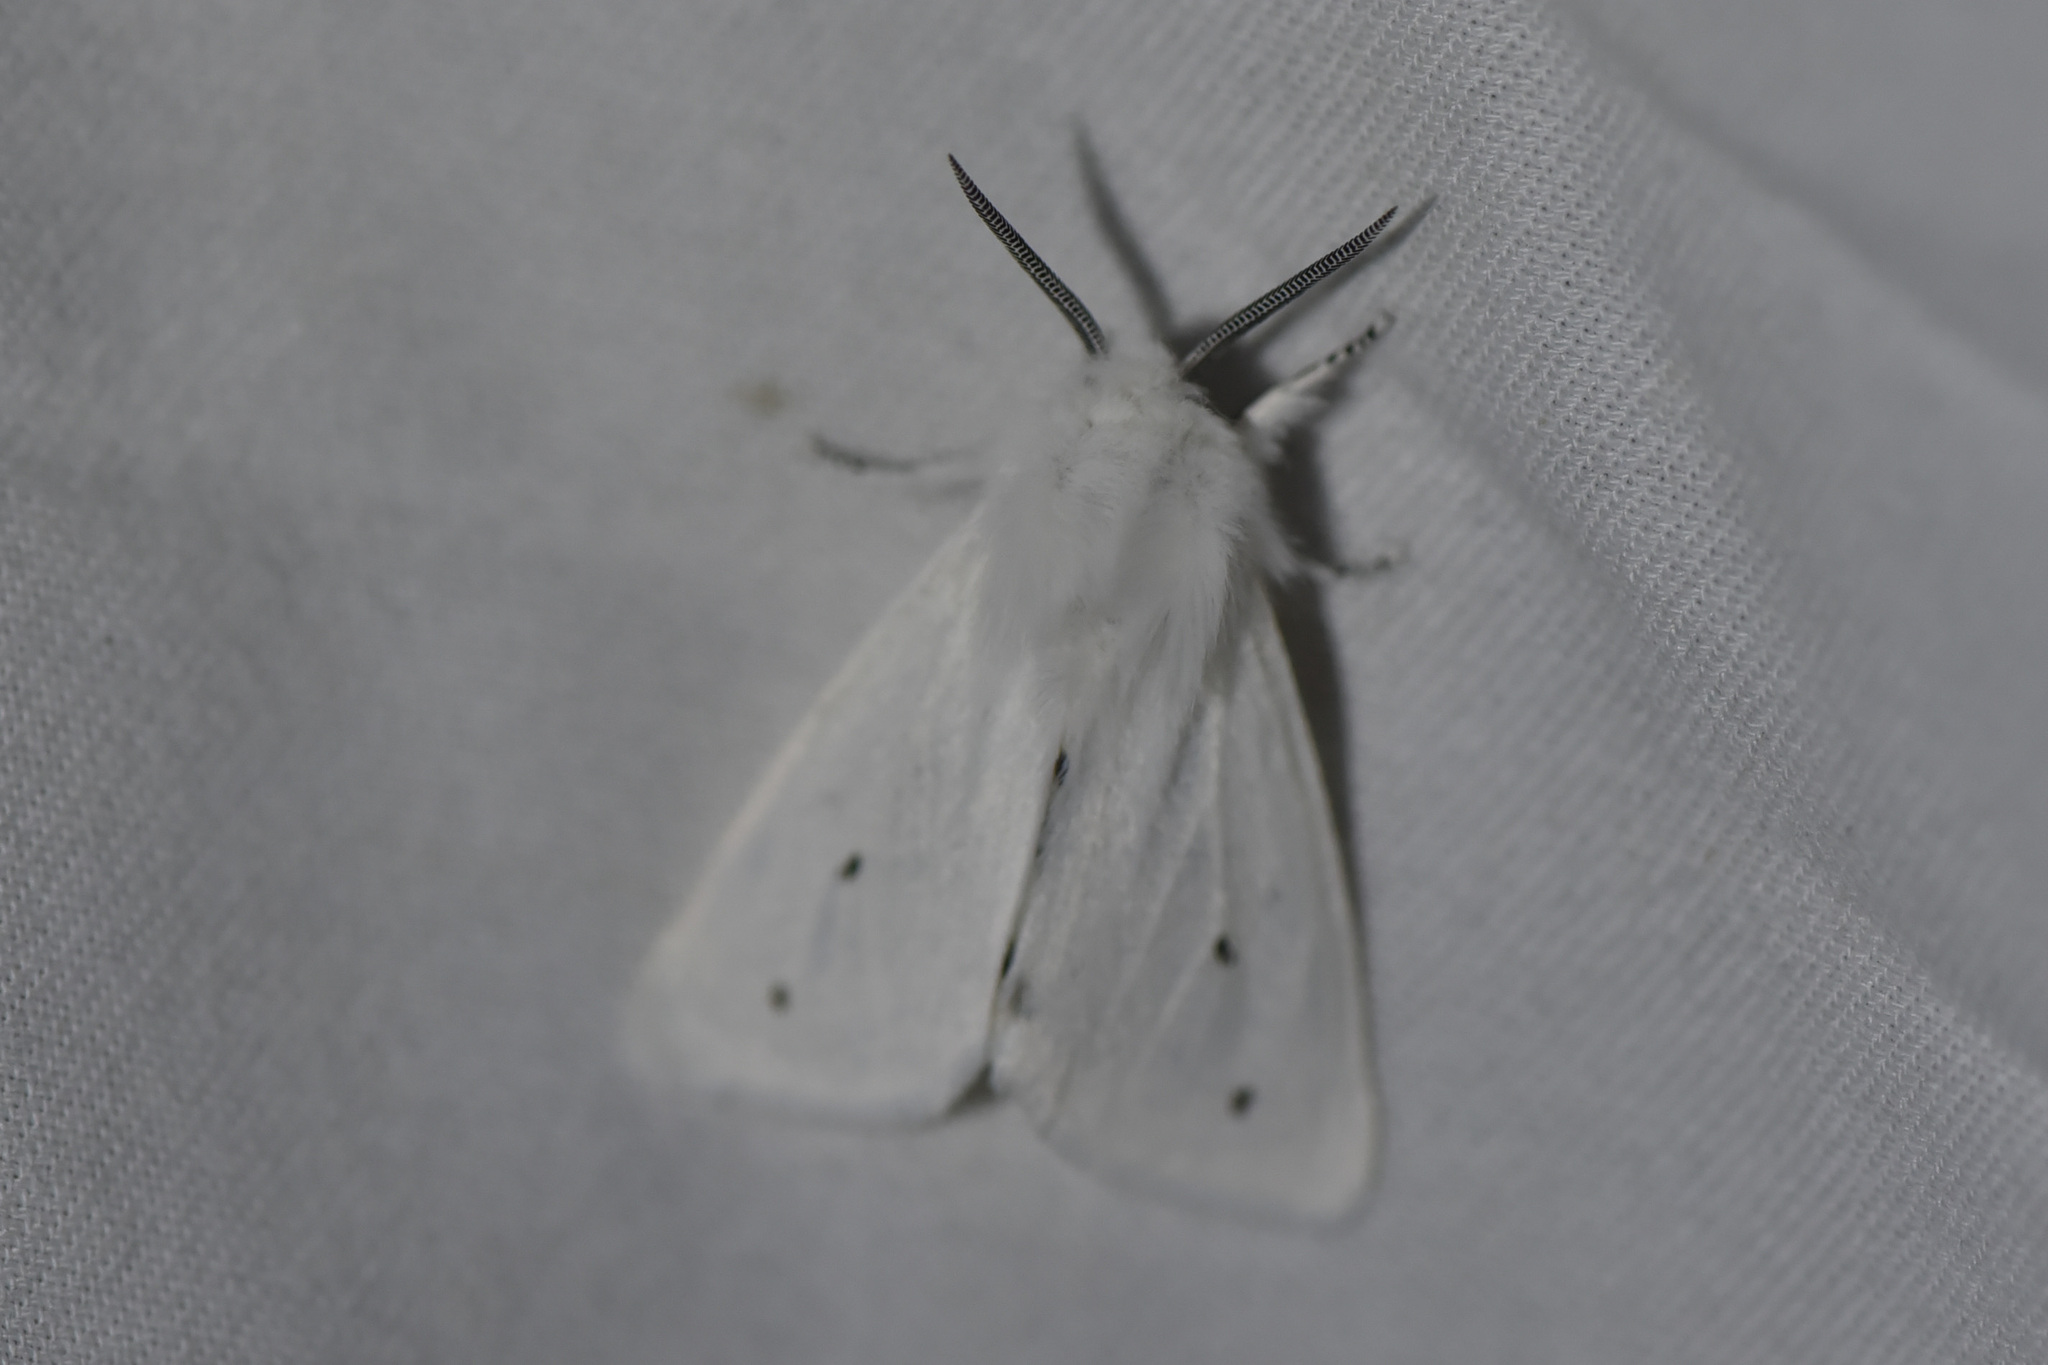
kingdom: Animalia
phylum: Arthropoda
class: Insecta
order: Lepidoptera
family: Erebidae
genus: Spilosoma
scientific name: Spilosoma virginica
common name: Virginia tiger moth
